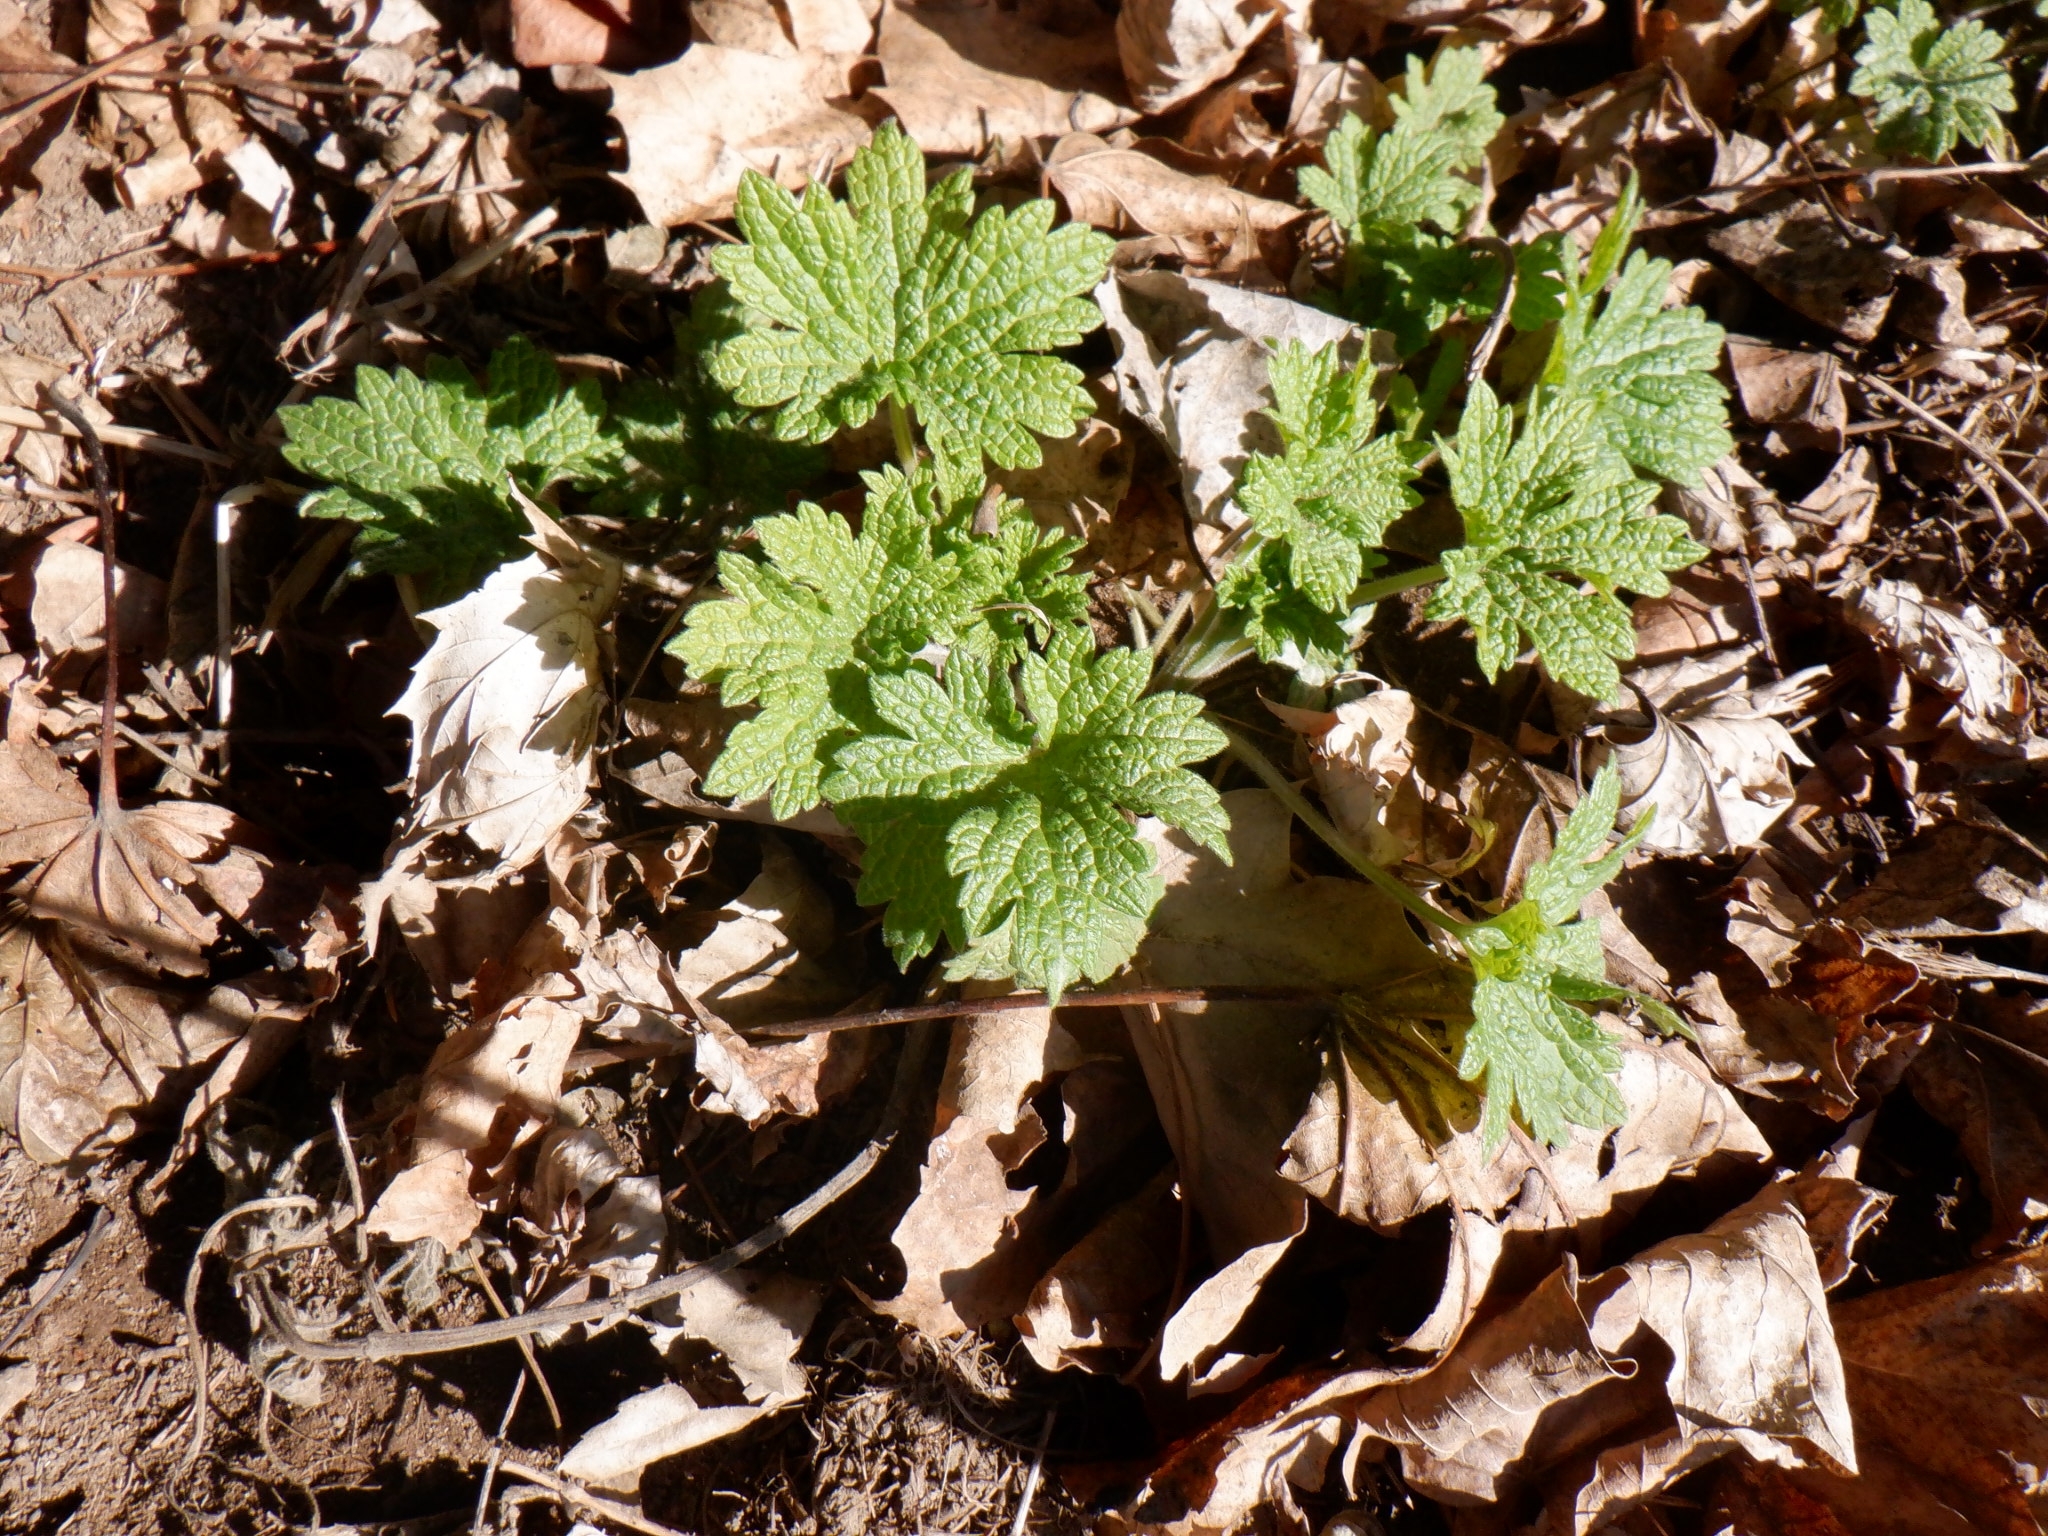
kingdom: Plantae
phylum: Tracheophyta
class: Magnoliopsida
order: Lamiales
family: Lamiaceae
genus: Leonurus
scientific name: Leonurus cardiaca
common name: Motherwort
